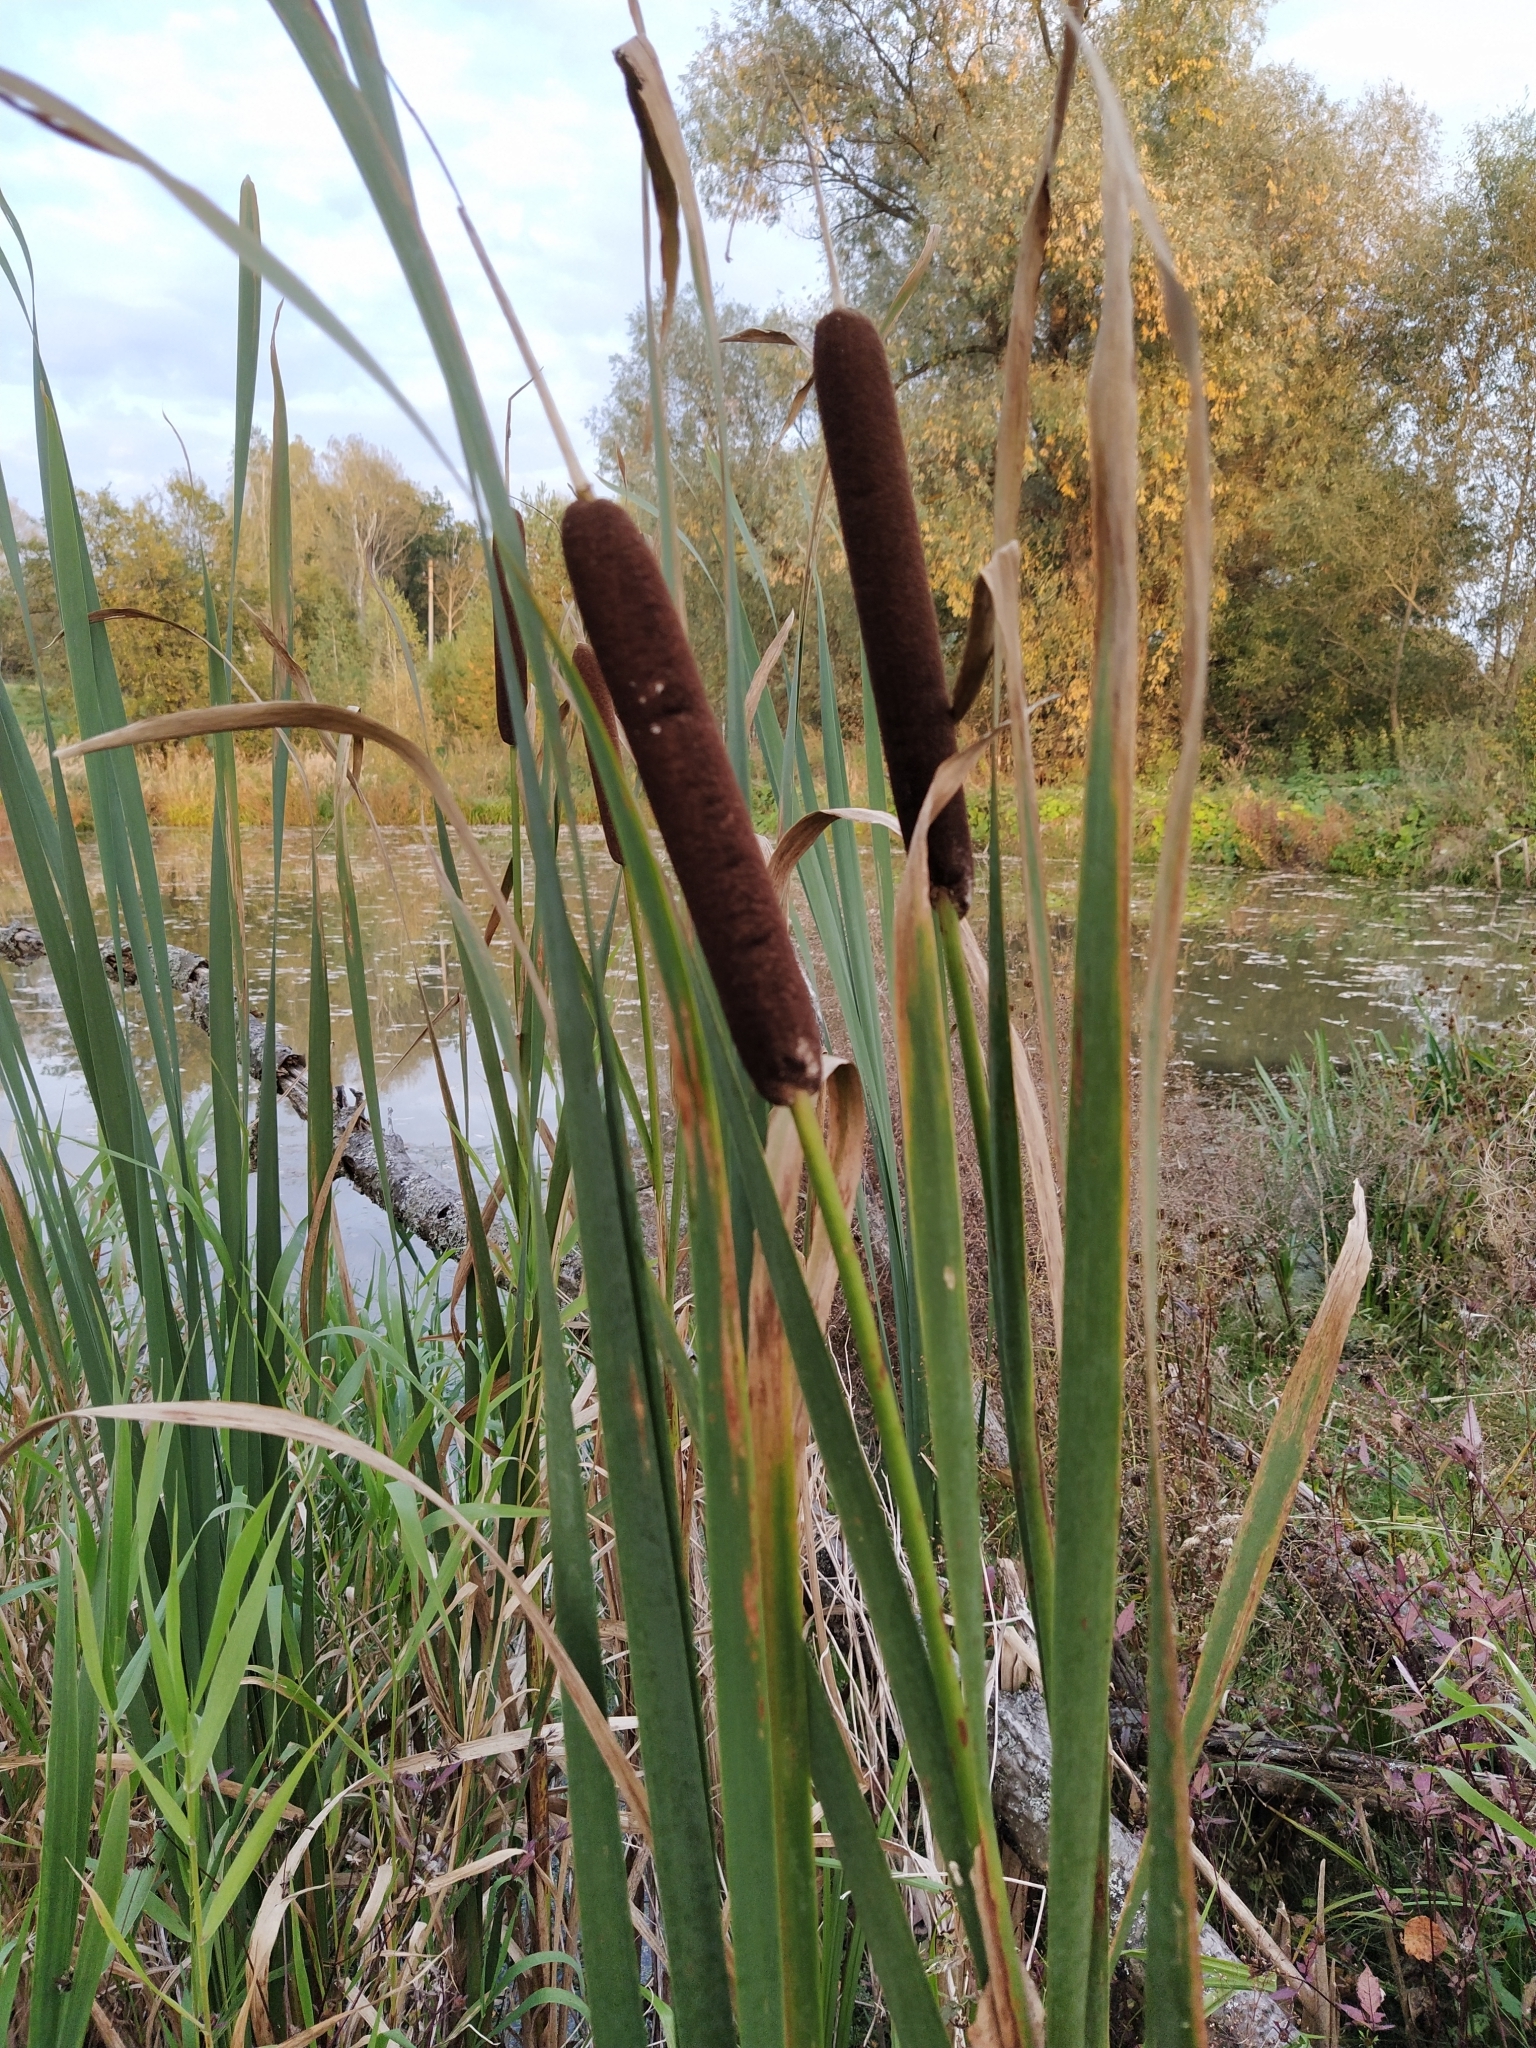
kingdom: Plantae
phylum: Tracheophyta
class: Liliopsida
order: Poales
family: Typhaceae
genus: Typha
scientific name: Typha latifolia
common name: Broadleaf cattail
